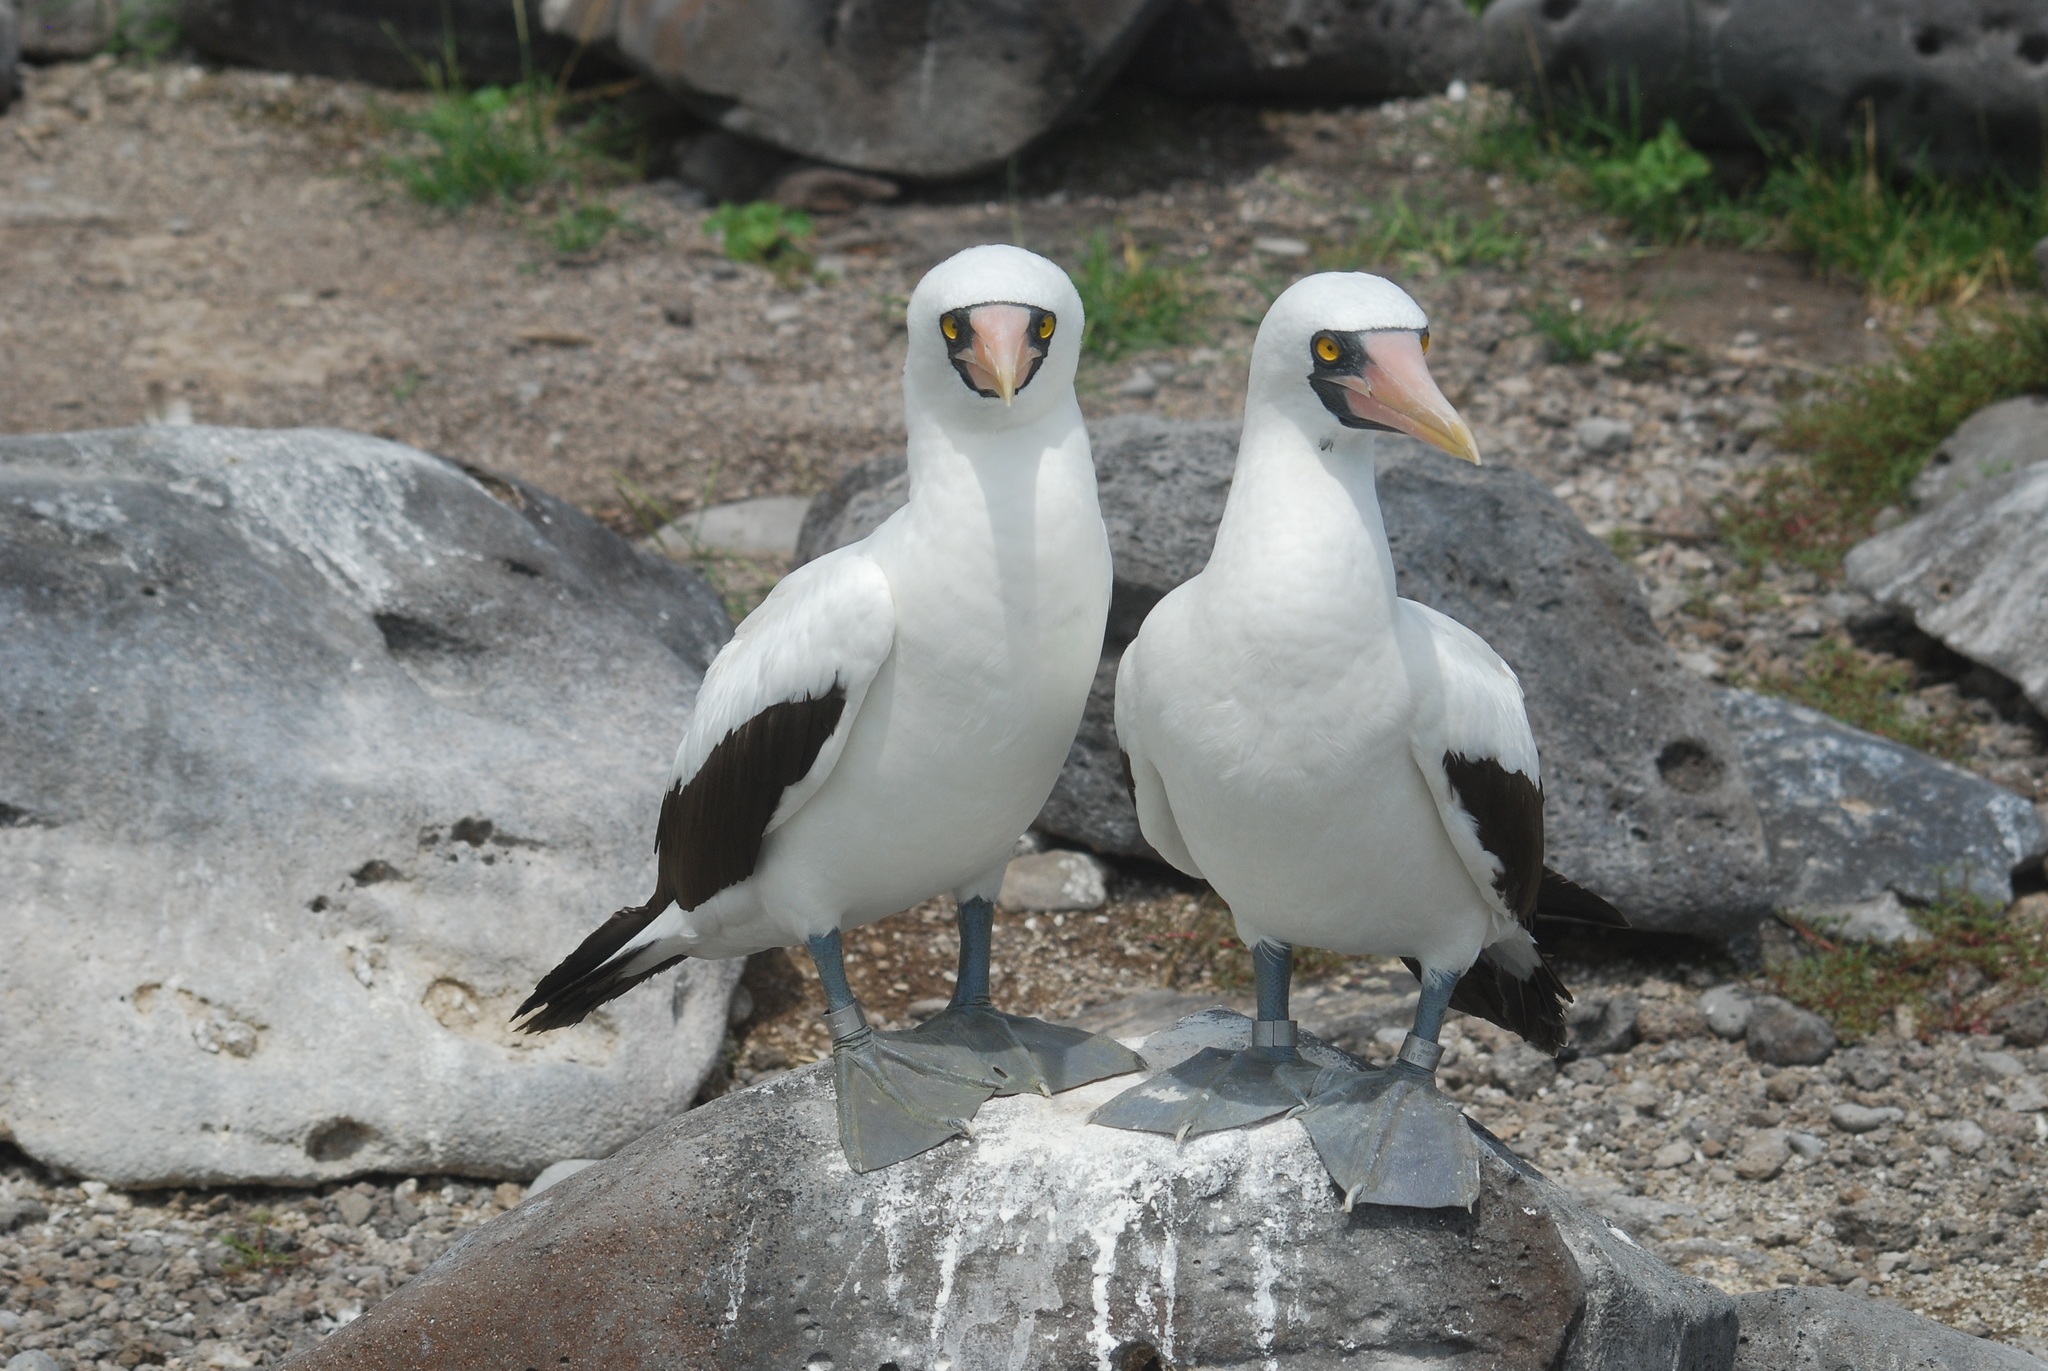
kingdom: Animalia
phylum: Chordata
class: Aves
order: Suliformes
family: Sulidae
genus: Sula
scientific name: Sula granti
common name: Nazca booby
